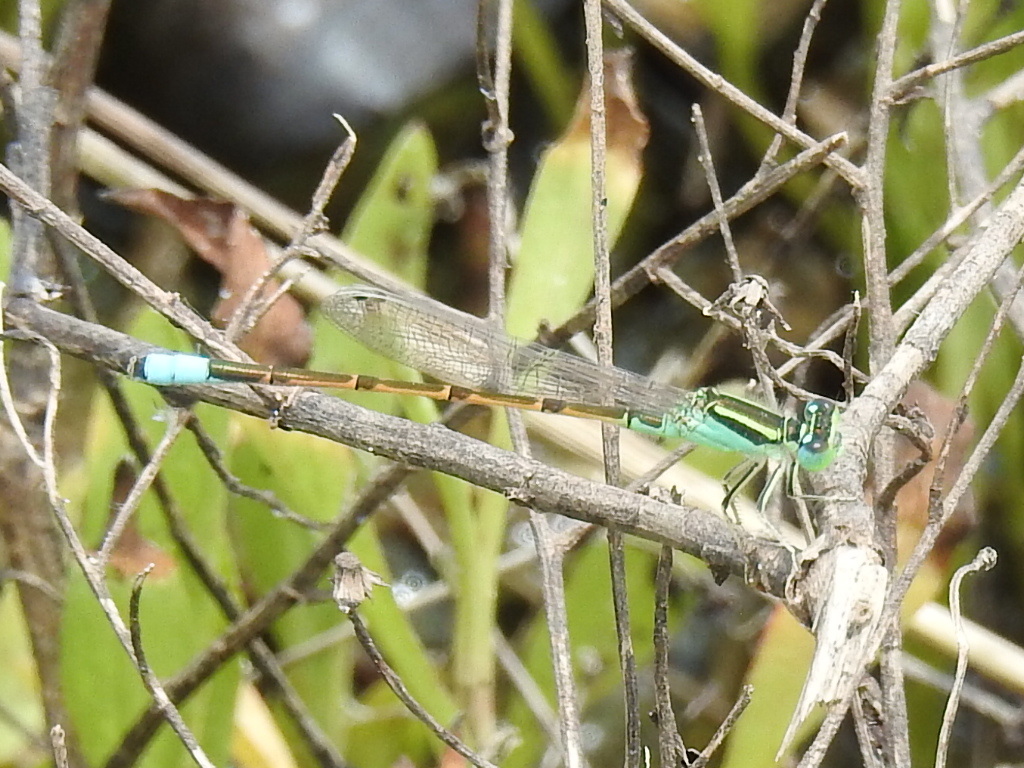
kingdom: Animalia
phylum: Arthropoda
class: Insecta
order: Odonata
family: Coenagrionidae
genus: Ischnura
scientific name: Ischnura barberi
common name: Desert forktail
